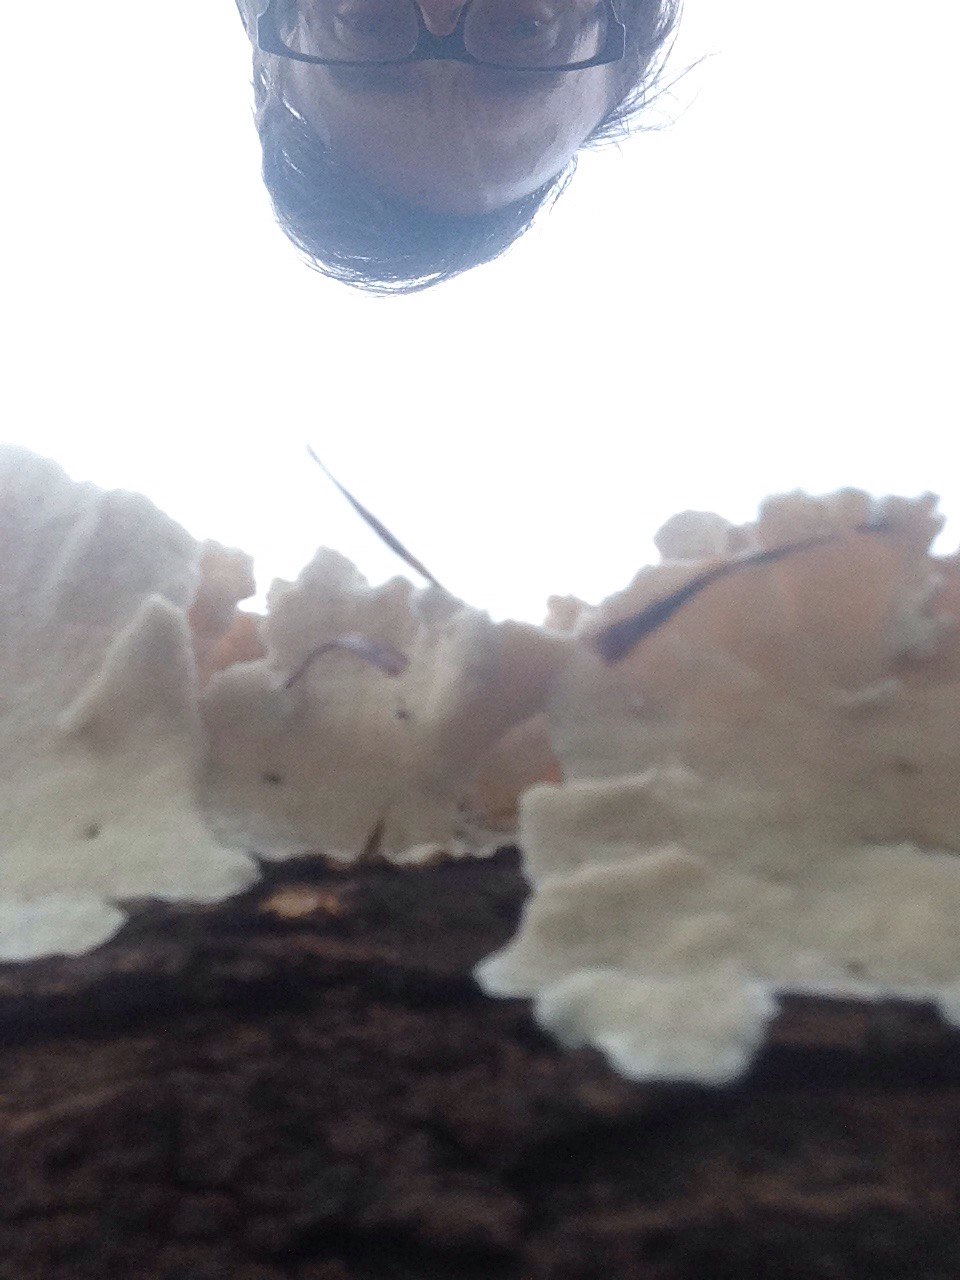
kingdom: Fungi
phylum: Basidiomycota
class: Agaricomycetes
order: Polyporales
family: Polyporaceae
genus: Trametes
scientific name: Trametes versicolor
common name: Turkeytail
